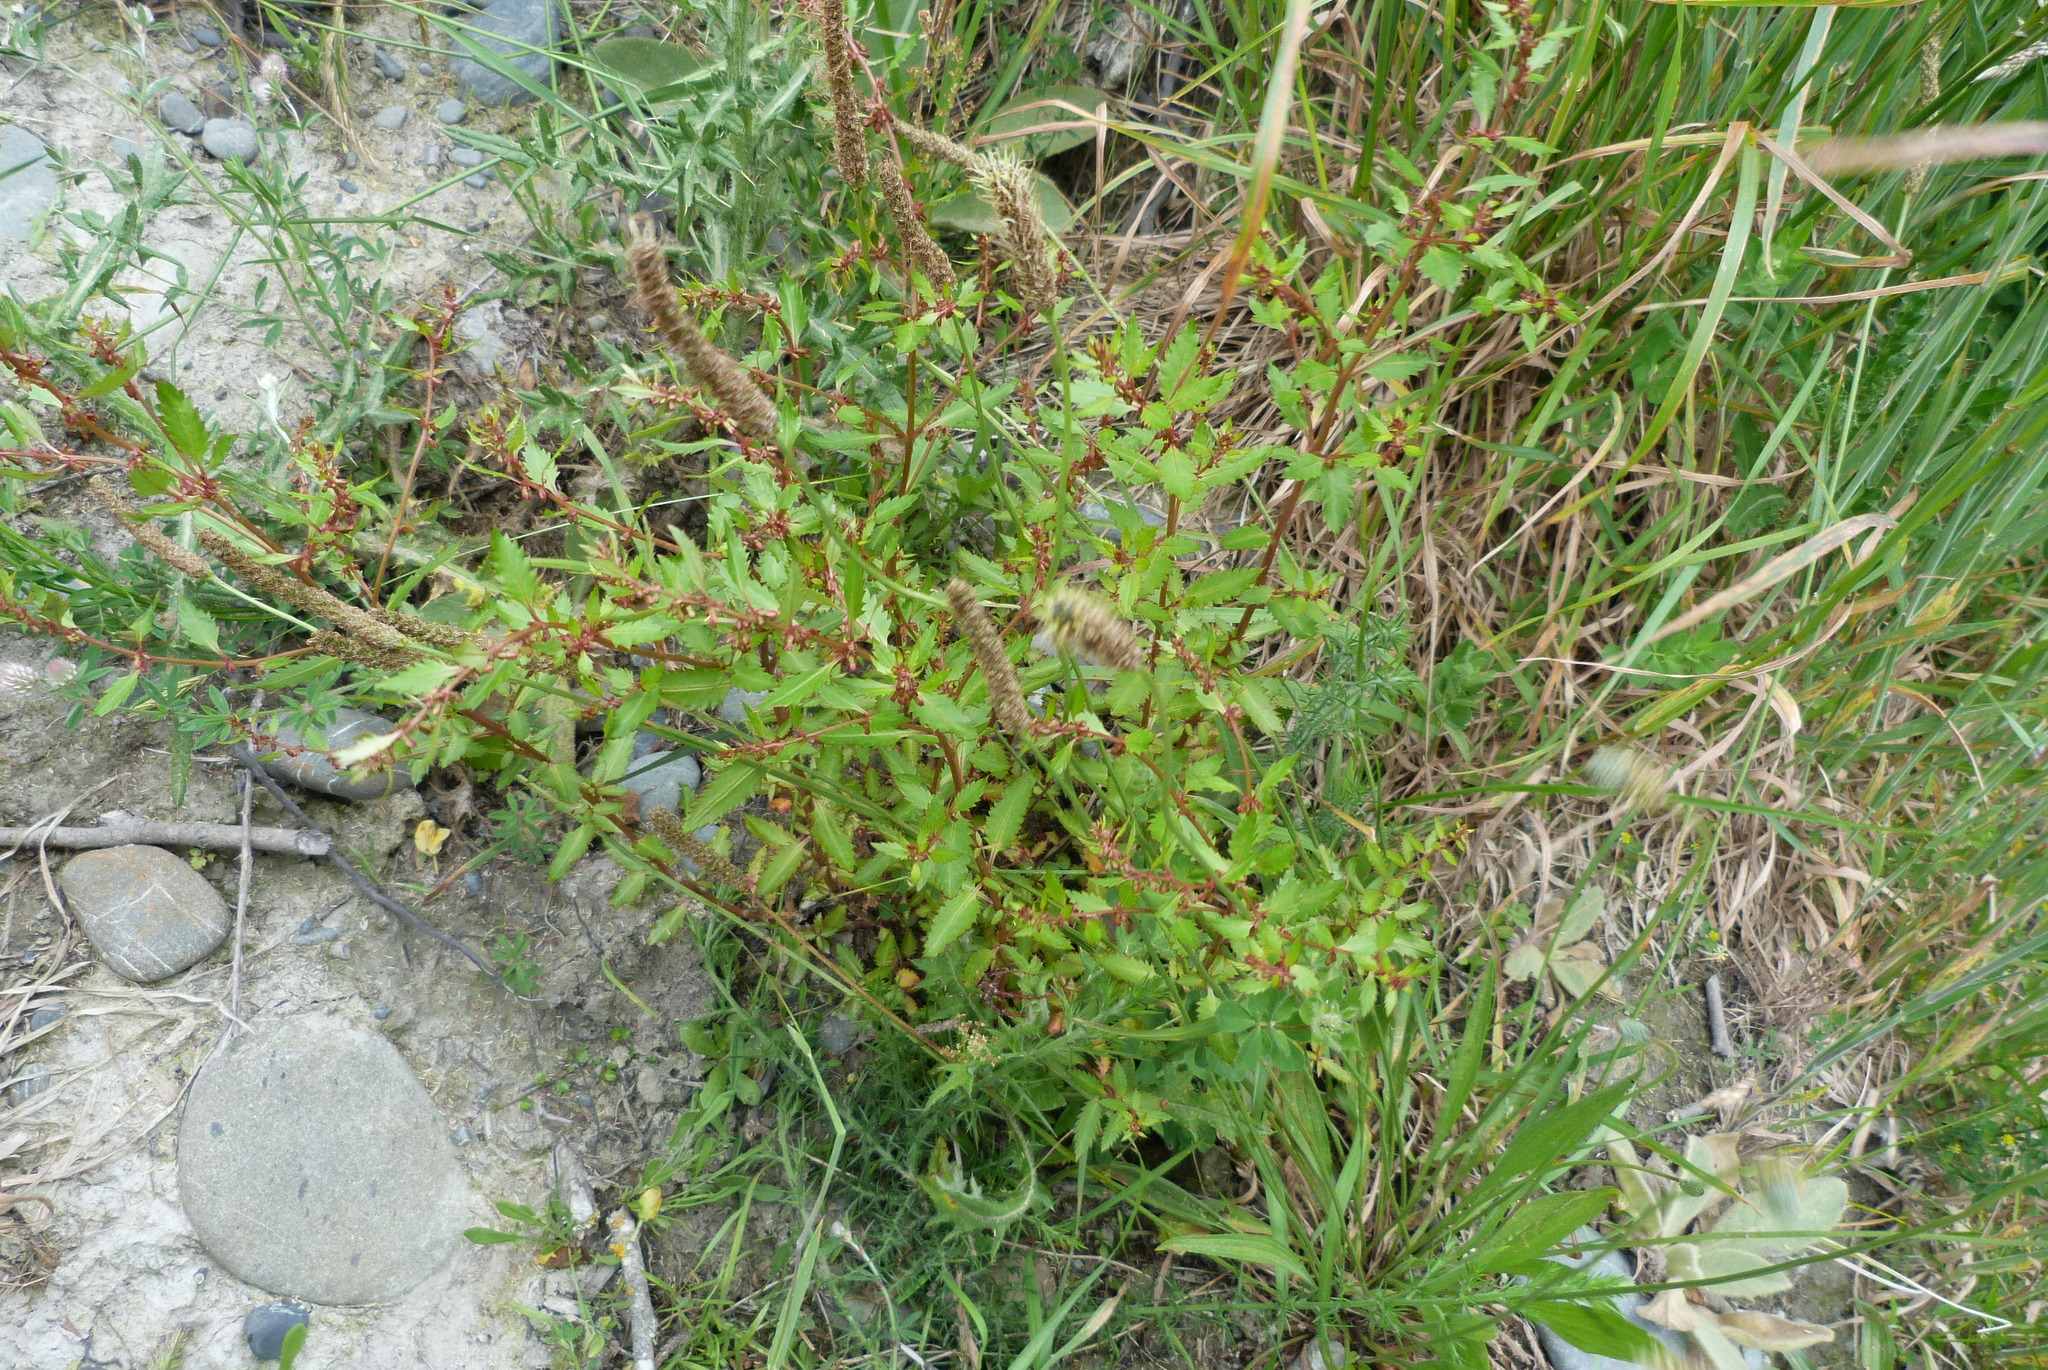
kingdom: Plantae
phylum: Tracheophyta
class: Magnoliopsida
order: Saxifragales
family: Haloragaceae
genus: Haloragis
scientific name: Haloragis erecta
